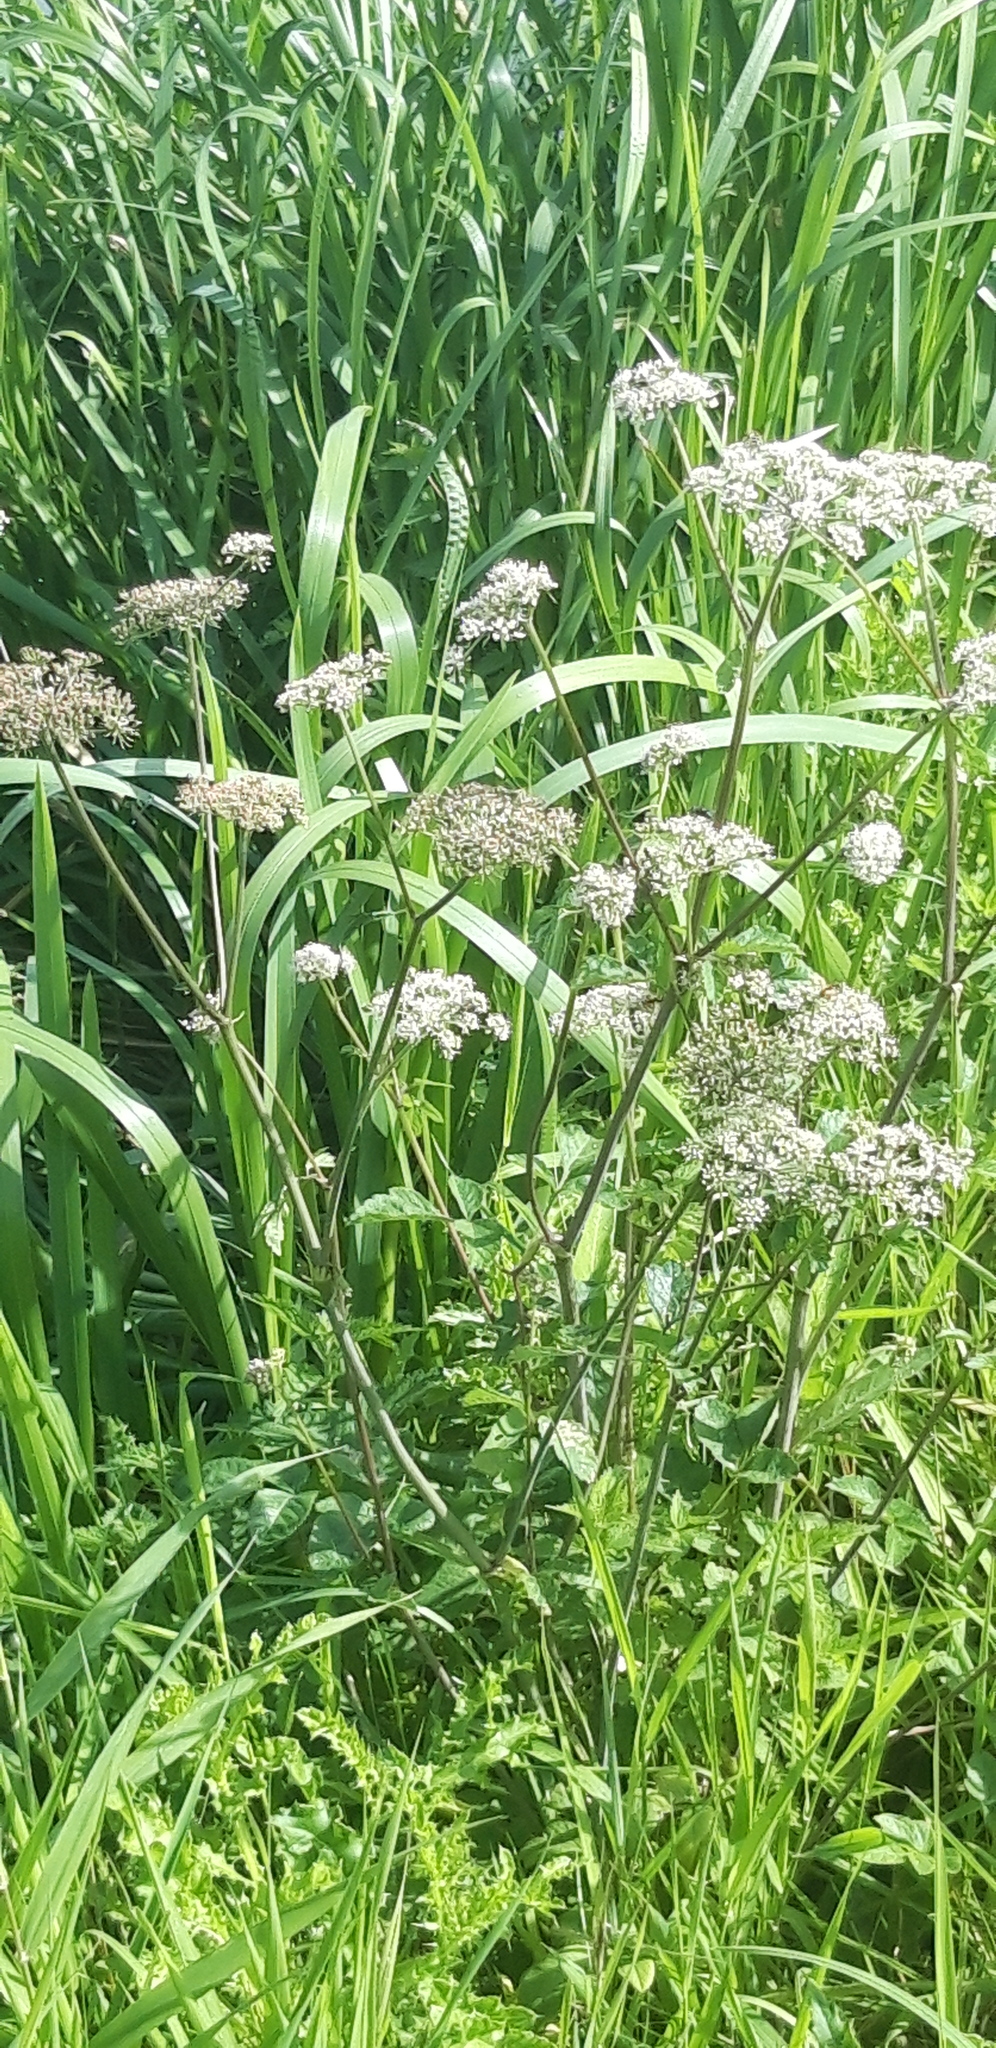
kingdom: Plantae
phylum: Tracheophyta
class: Magnoliopsida
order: Apiales
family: Apiaceae
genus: Angelica
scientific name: Angelica sylvestris
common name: Wild angelica
